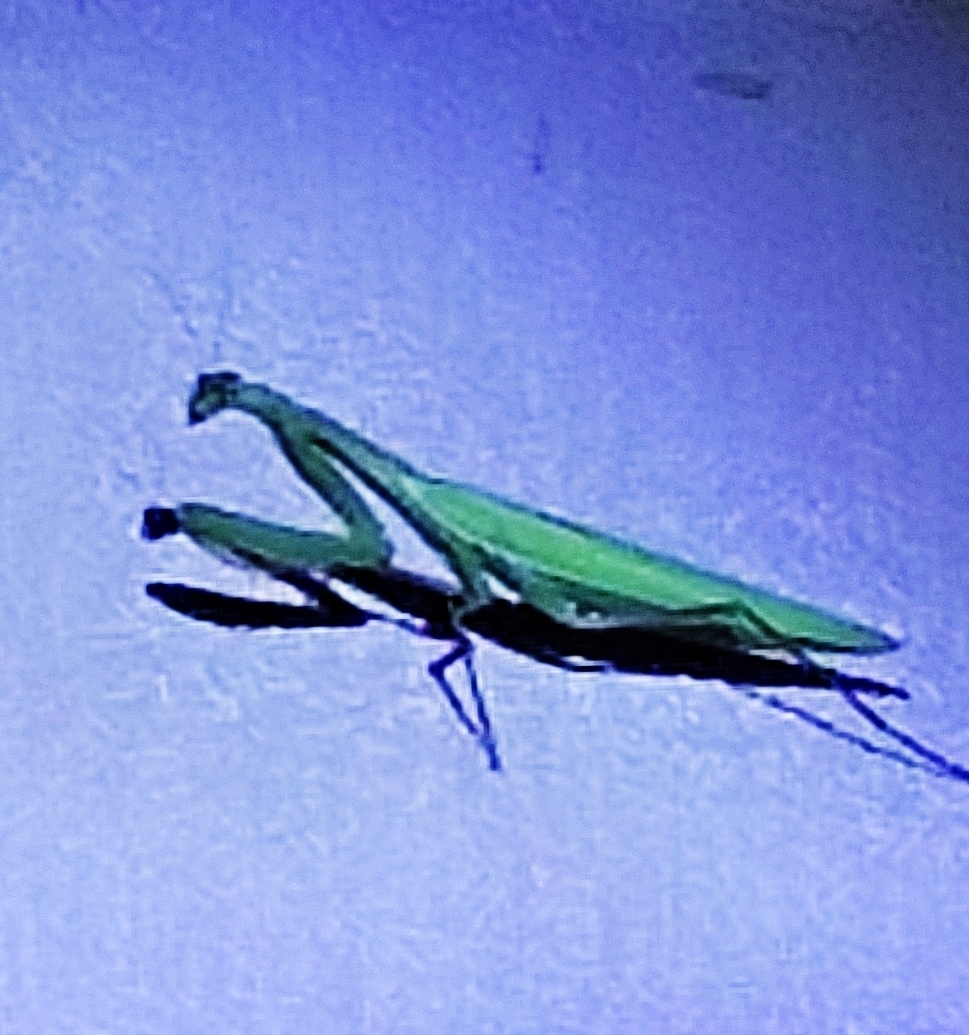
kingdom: Animalia
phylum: Arthropoda
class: Insecta
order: Mantodea
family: Mantidae
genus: Mantis
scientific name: Mantis religiosa
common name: Praying mantis
